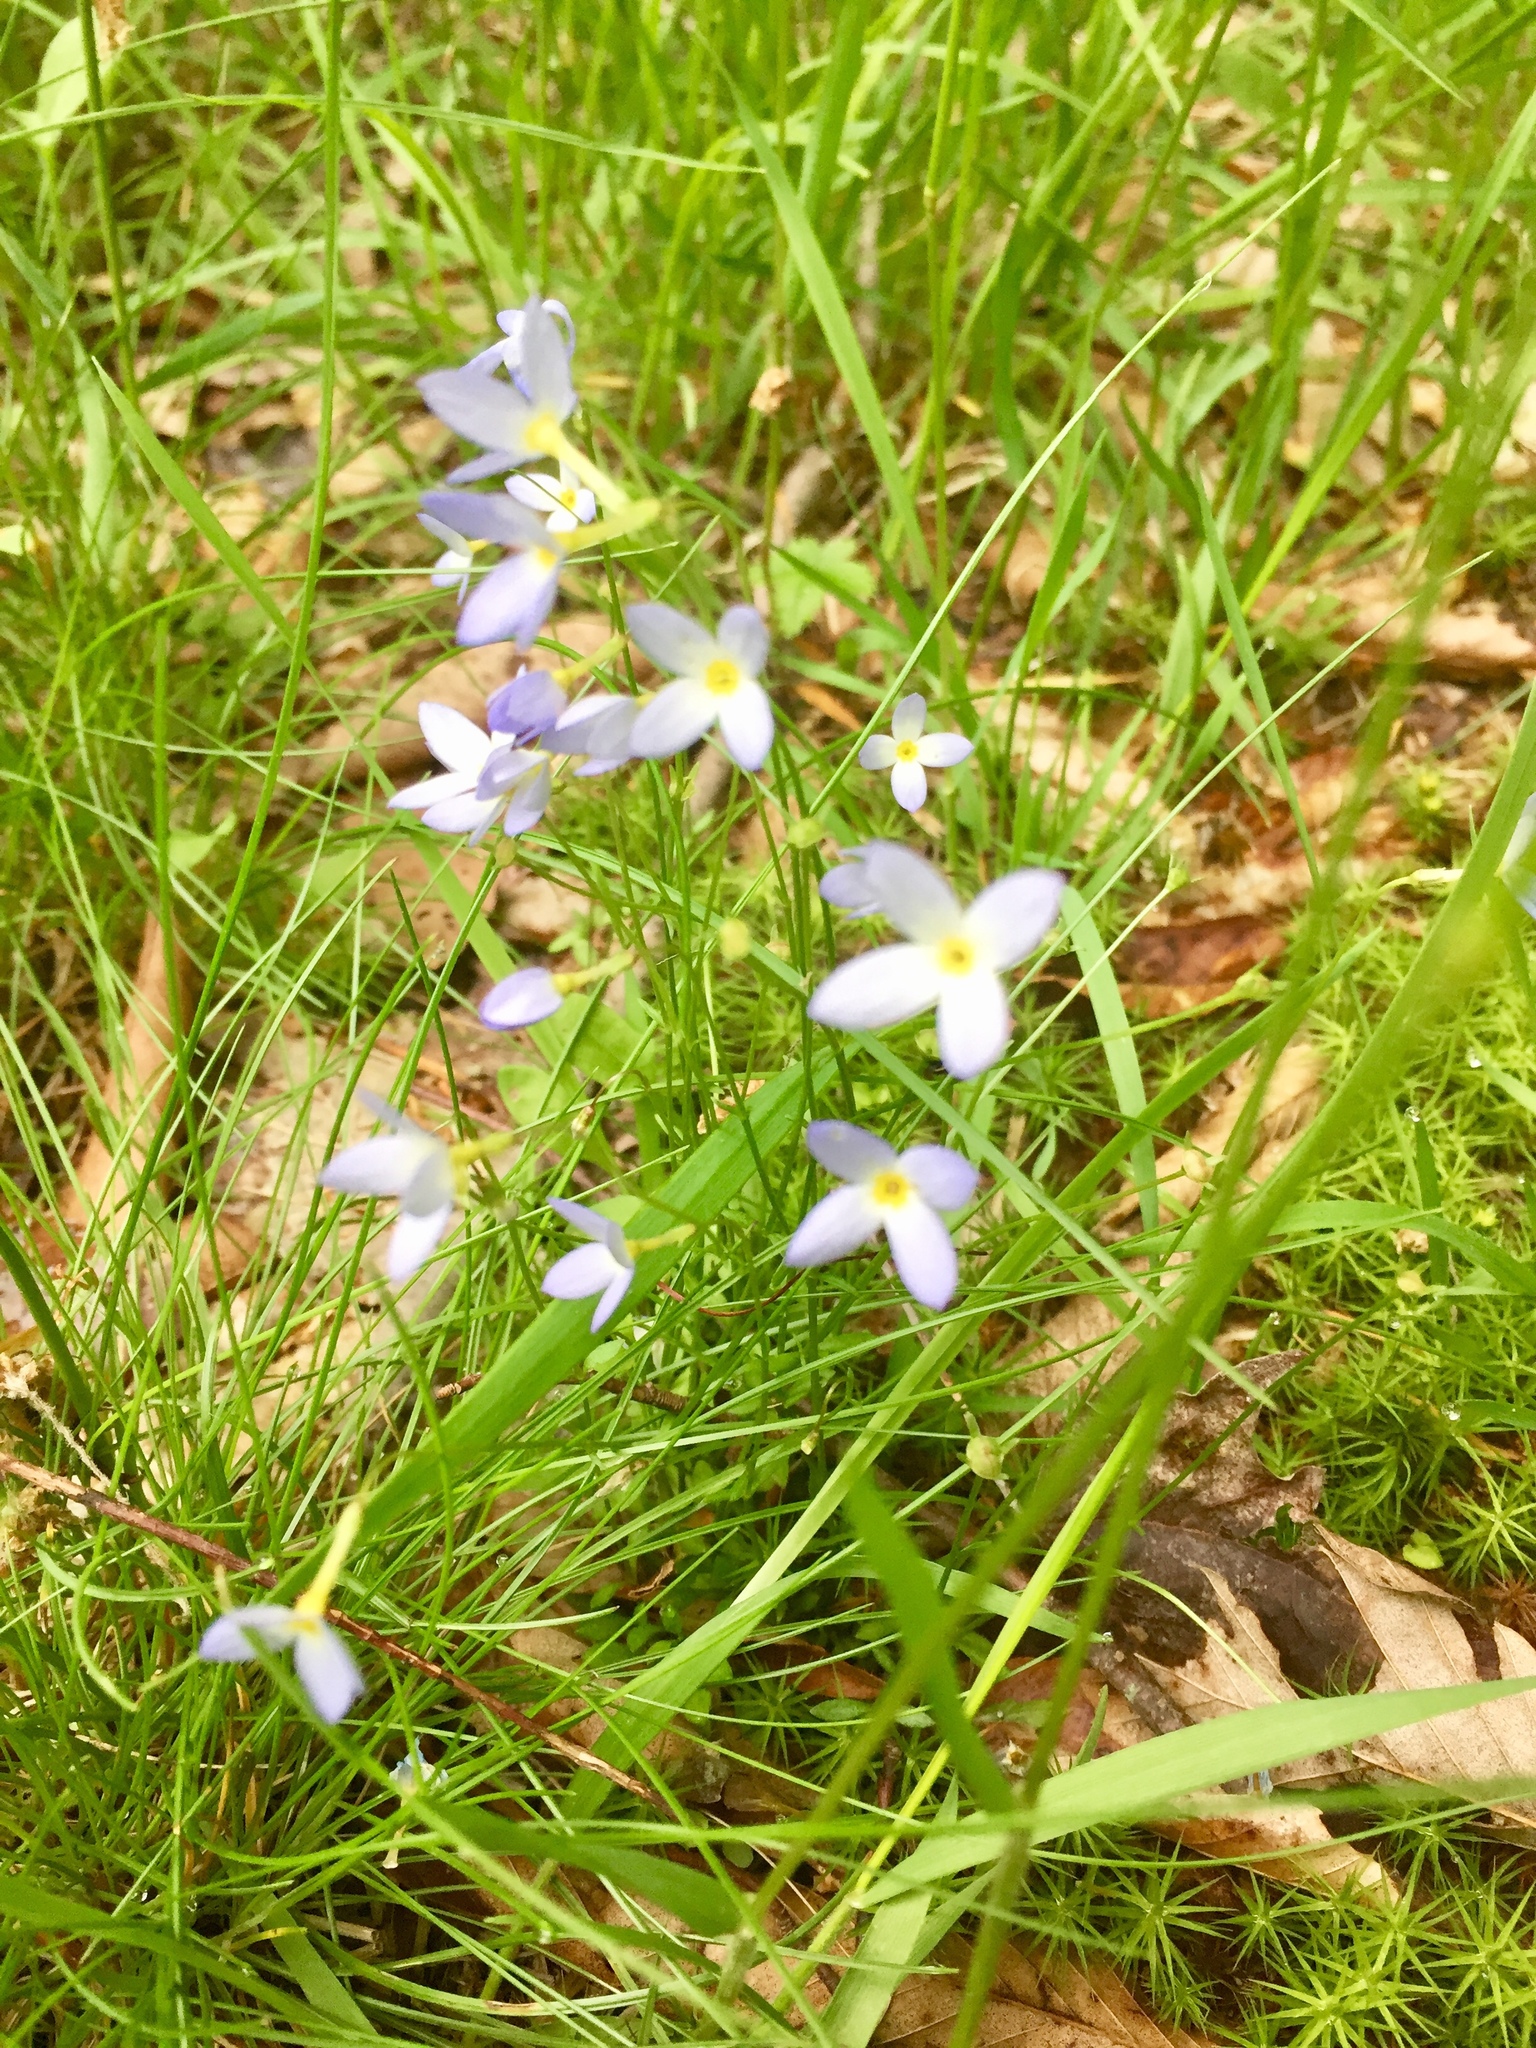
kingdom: Plantae
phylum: Tracheophyta
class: Magnoliopsida
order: Gentianales
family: Rubiaceae
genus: Houstonia
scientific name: Houstonia caerulea
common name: Bluets
